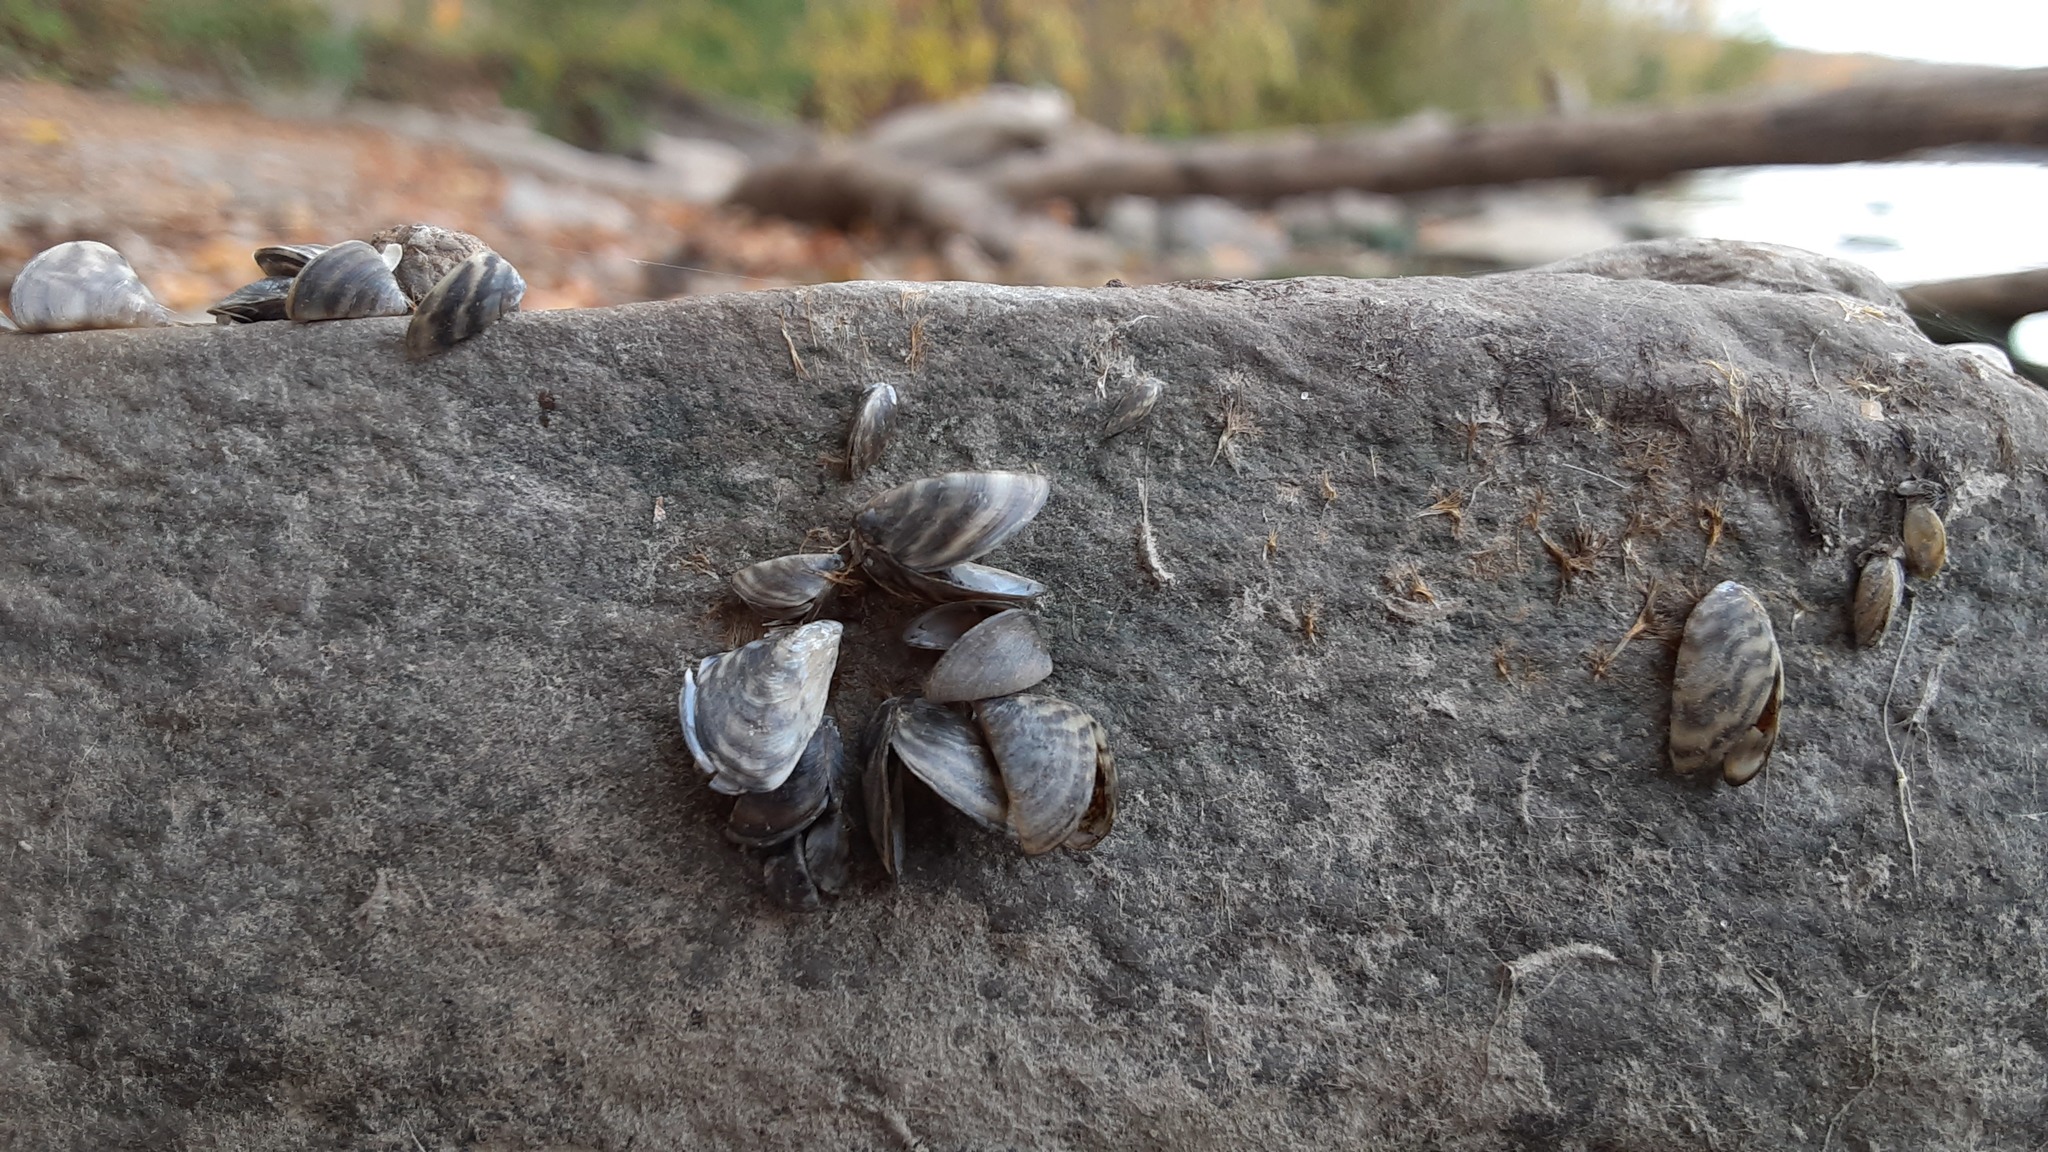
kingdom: Animalia
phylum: Mollusca
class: Bivalvia
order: Myida
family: Dreissenidae
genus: Dreissena
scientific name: Dreissena polymorpha
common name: Zebra mussel
